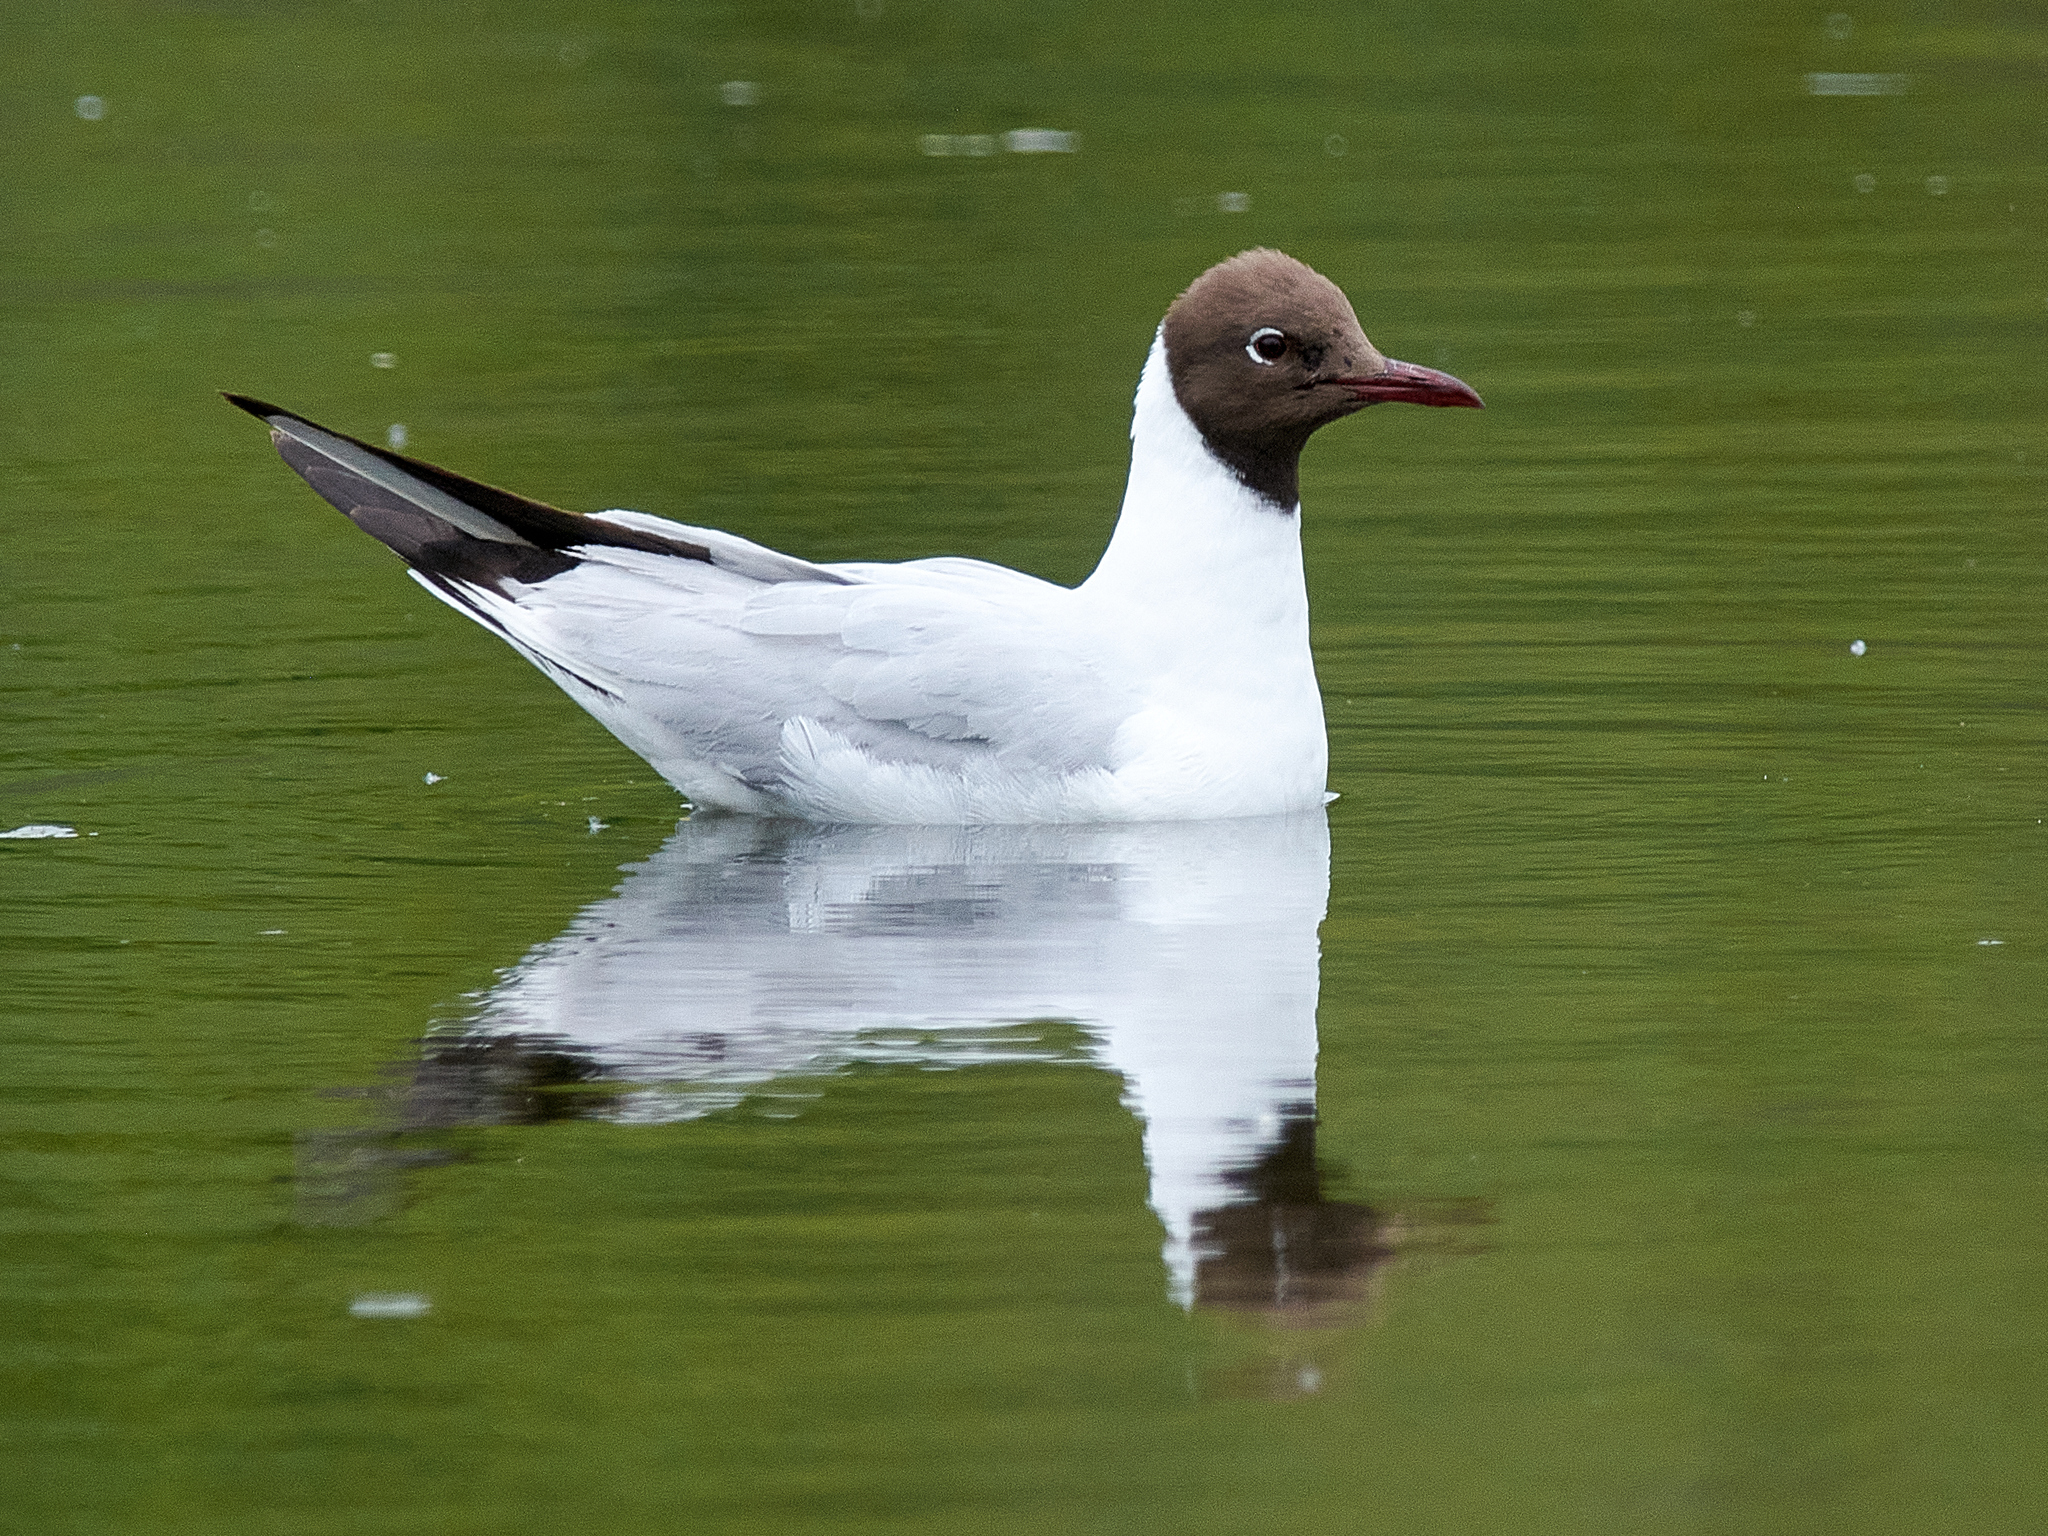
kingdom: Animalia
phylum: Chordata
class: Aves
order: Charadriiformes
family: Laridae
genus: Chroicocephalus
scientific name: Chroicocephalus ridibundus
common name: Black-headed gull
